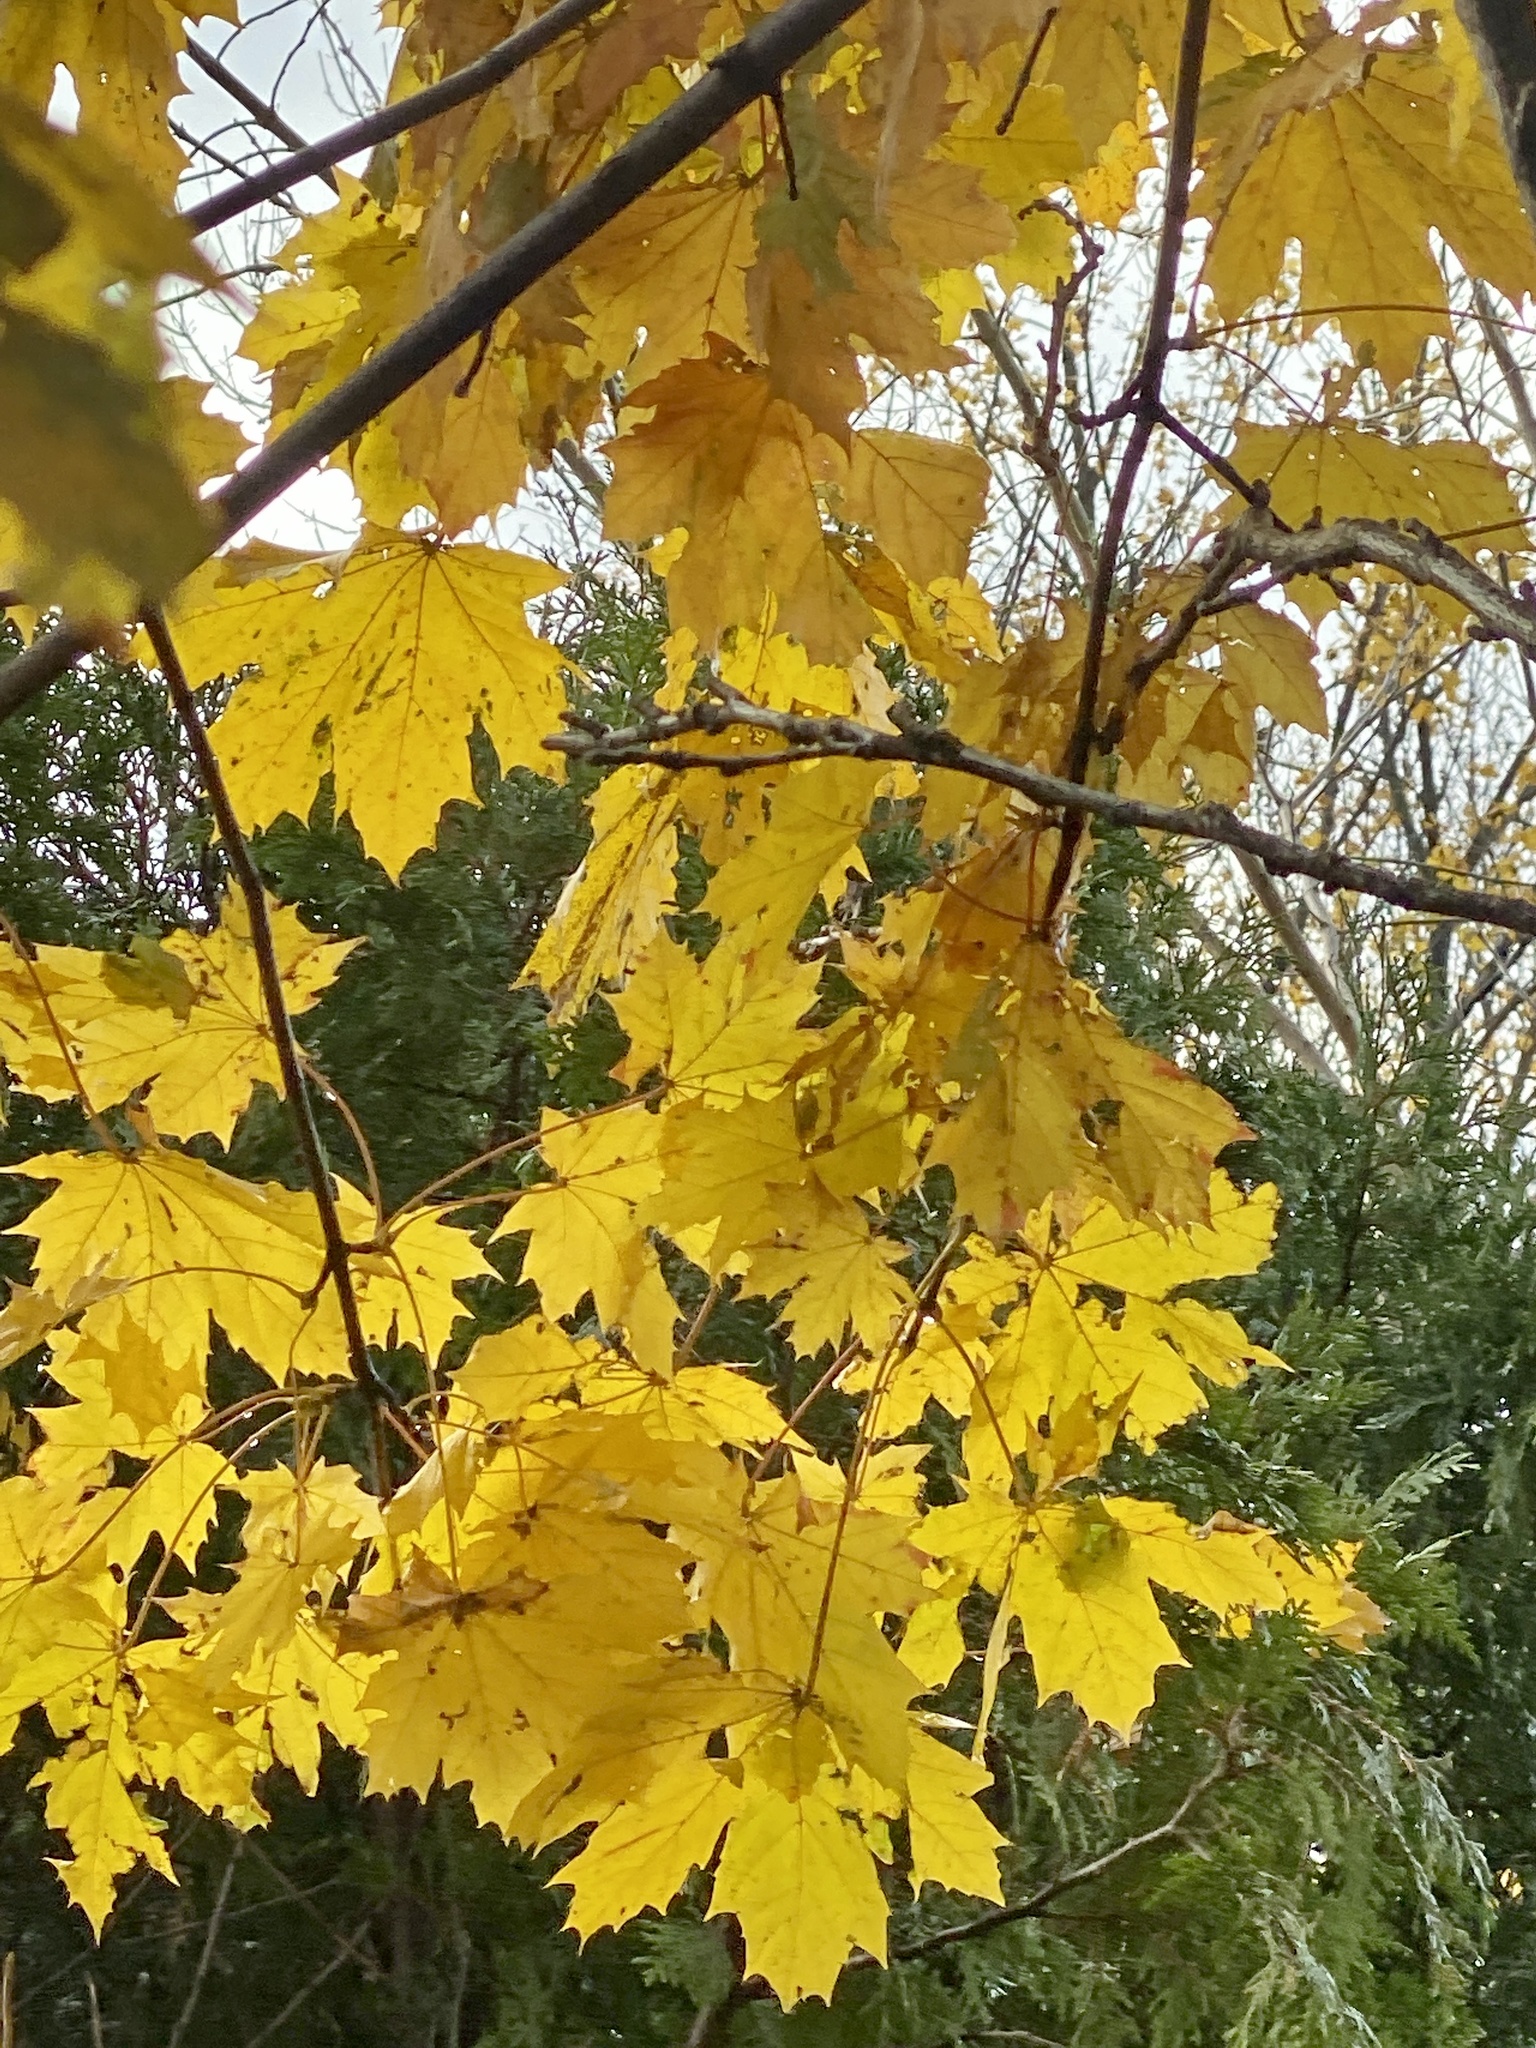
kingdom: Plantae
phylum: Tracheophyta
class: Magnoliopsida
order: Sapindales
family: Sapindaceae
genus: Acer
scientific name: Acer platanoides
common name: Norway maple
